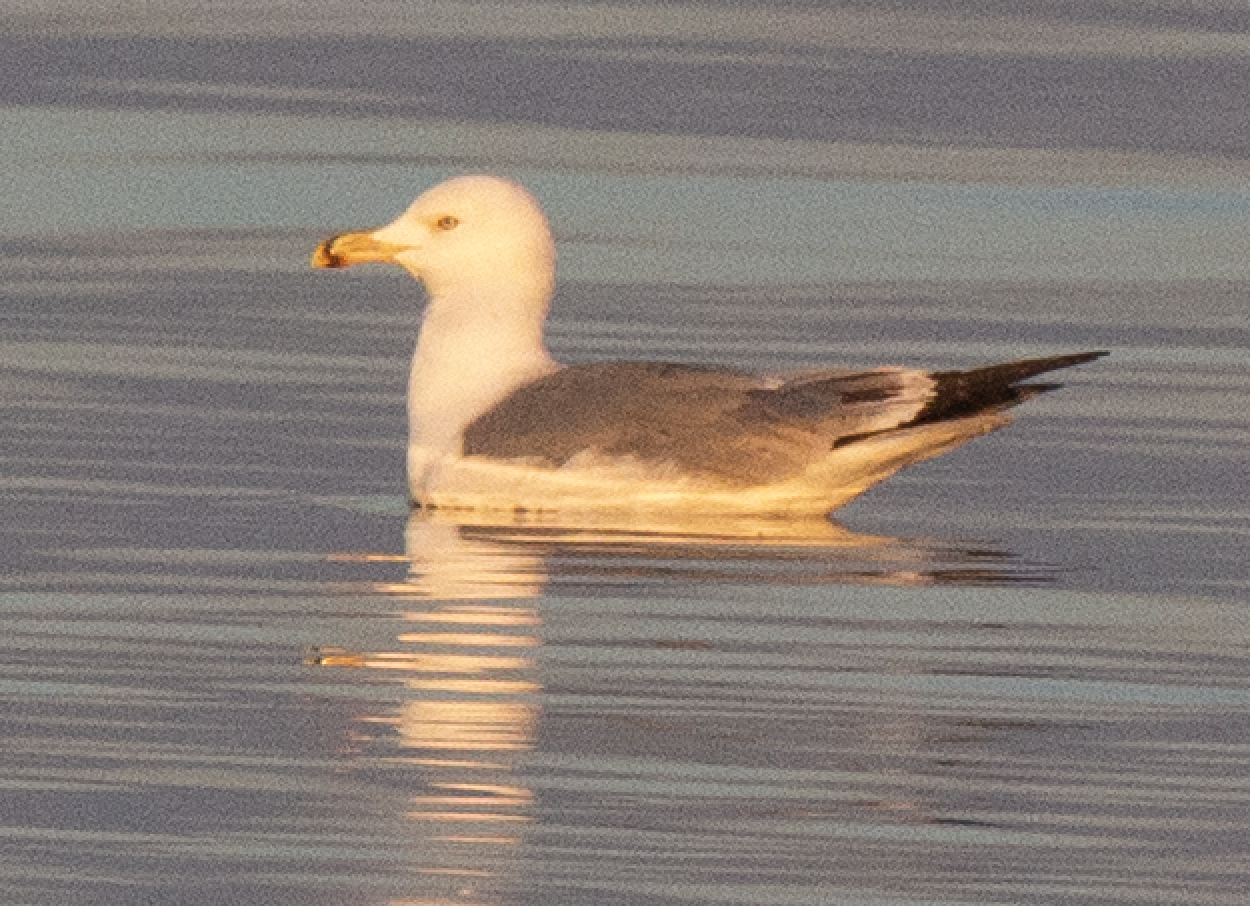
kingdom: Animalia
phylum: Chordata
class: Aves
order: Charadriiformes
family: Laridae
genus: Larus
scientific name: Larus michahellis
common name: Yellow-legged gull
